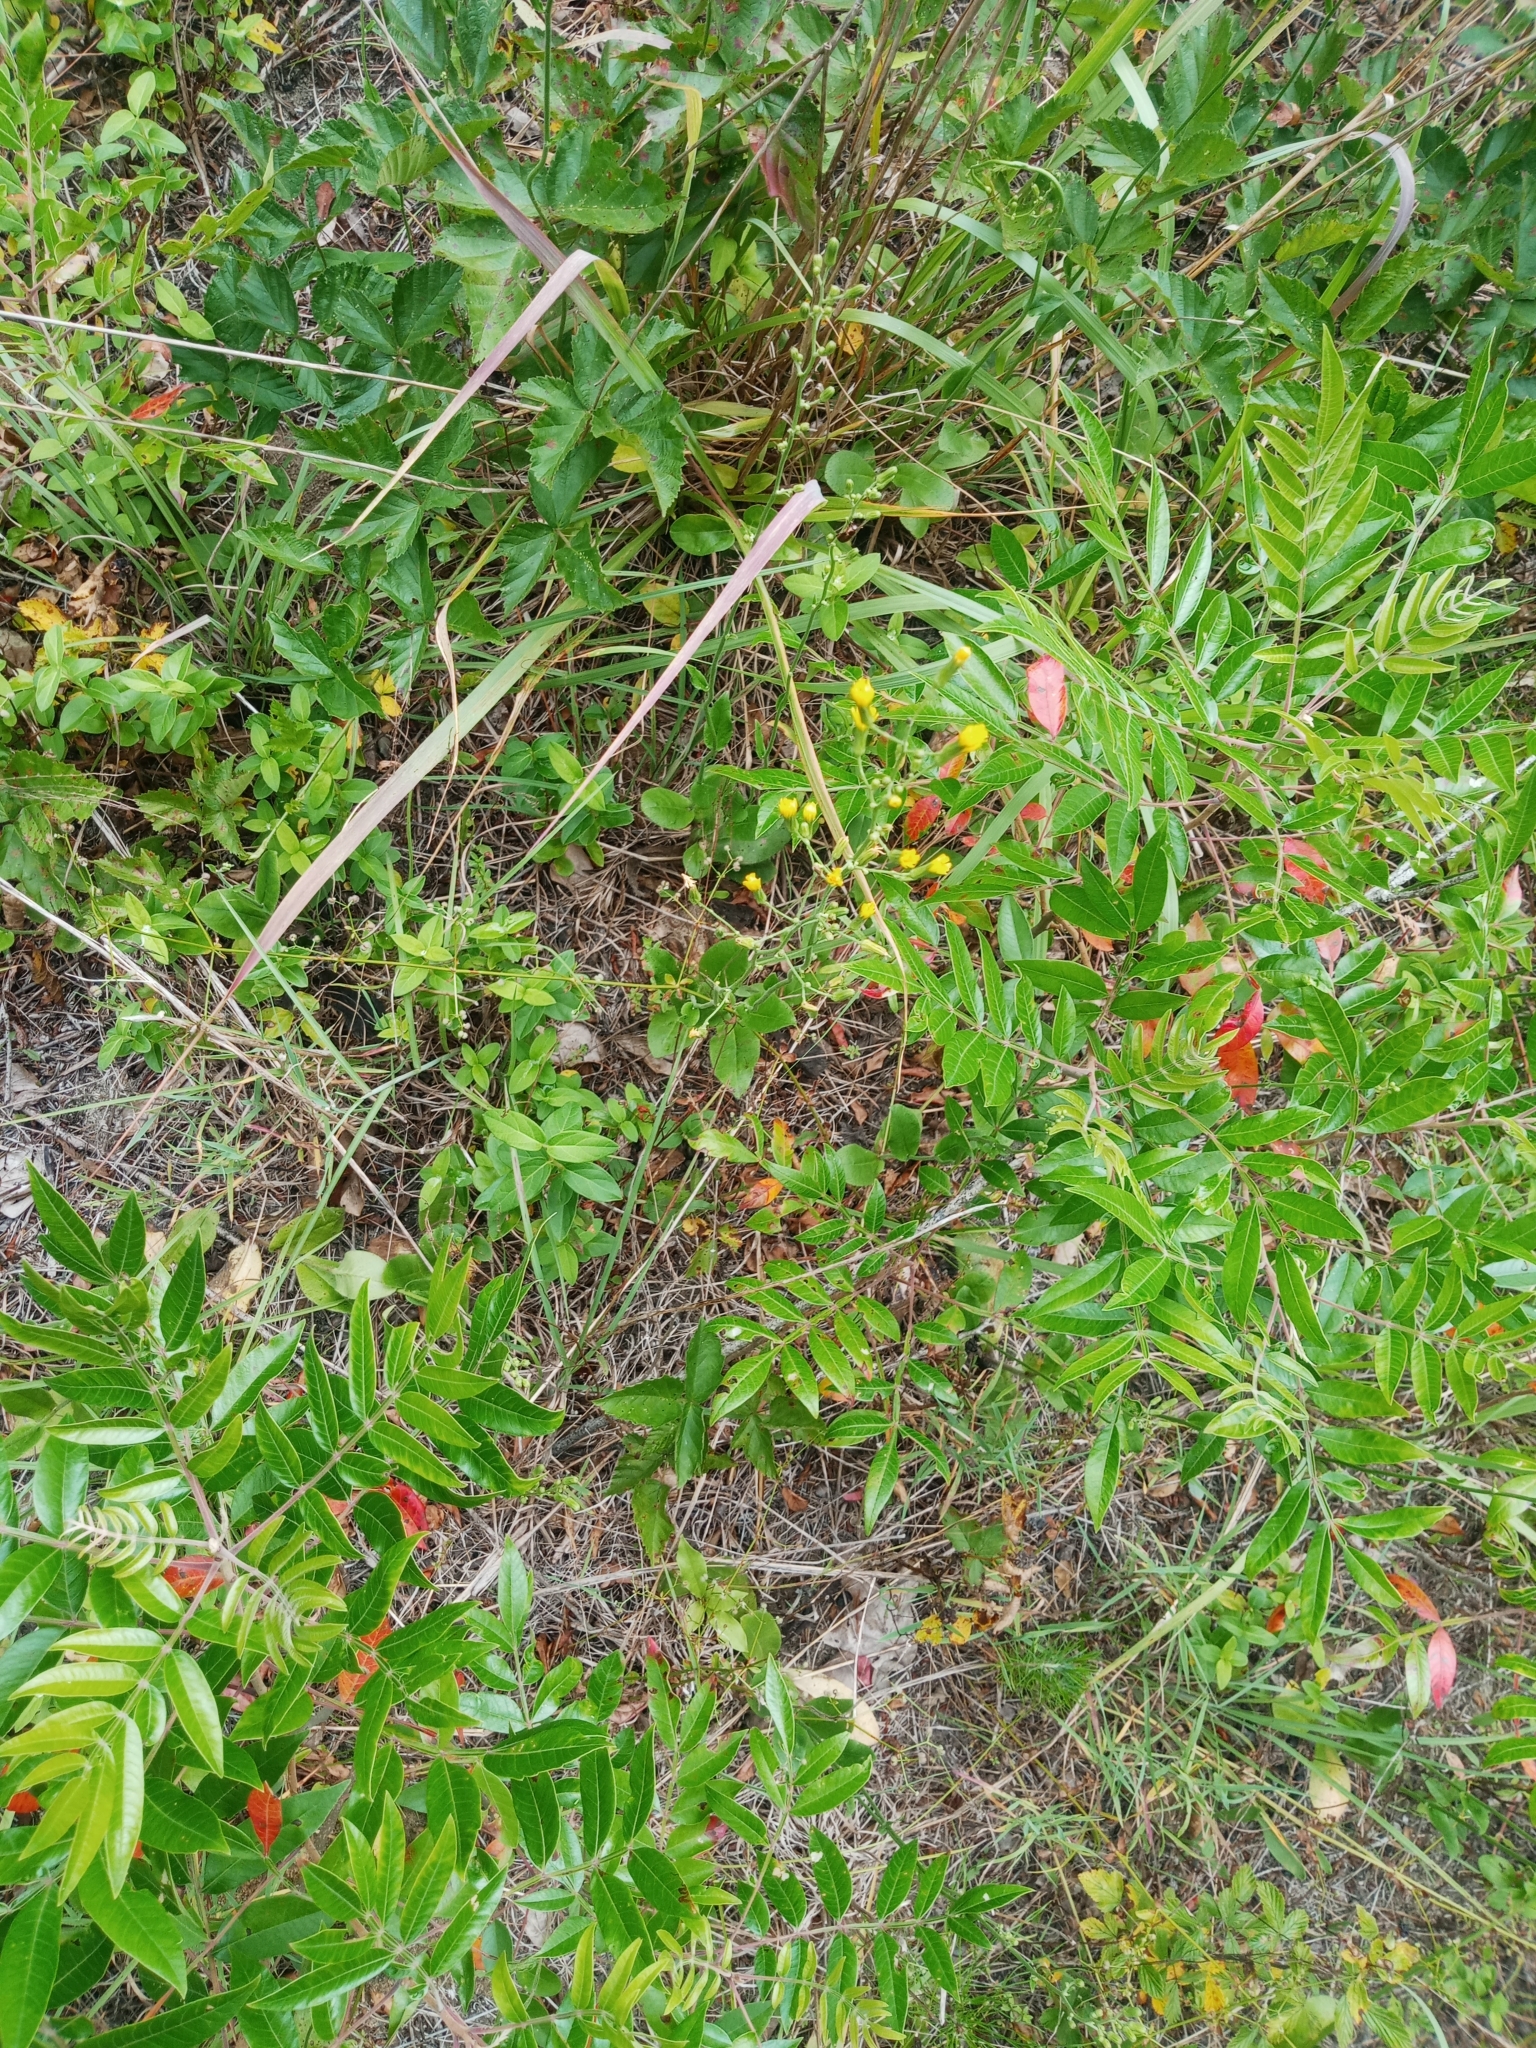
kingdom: Plantae
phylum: Tracheophyta
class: Magnoliopsida
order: Sapindales
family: Anacardiaceae
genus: Rhus
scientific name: Rhus copallina
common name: Shining sumac
